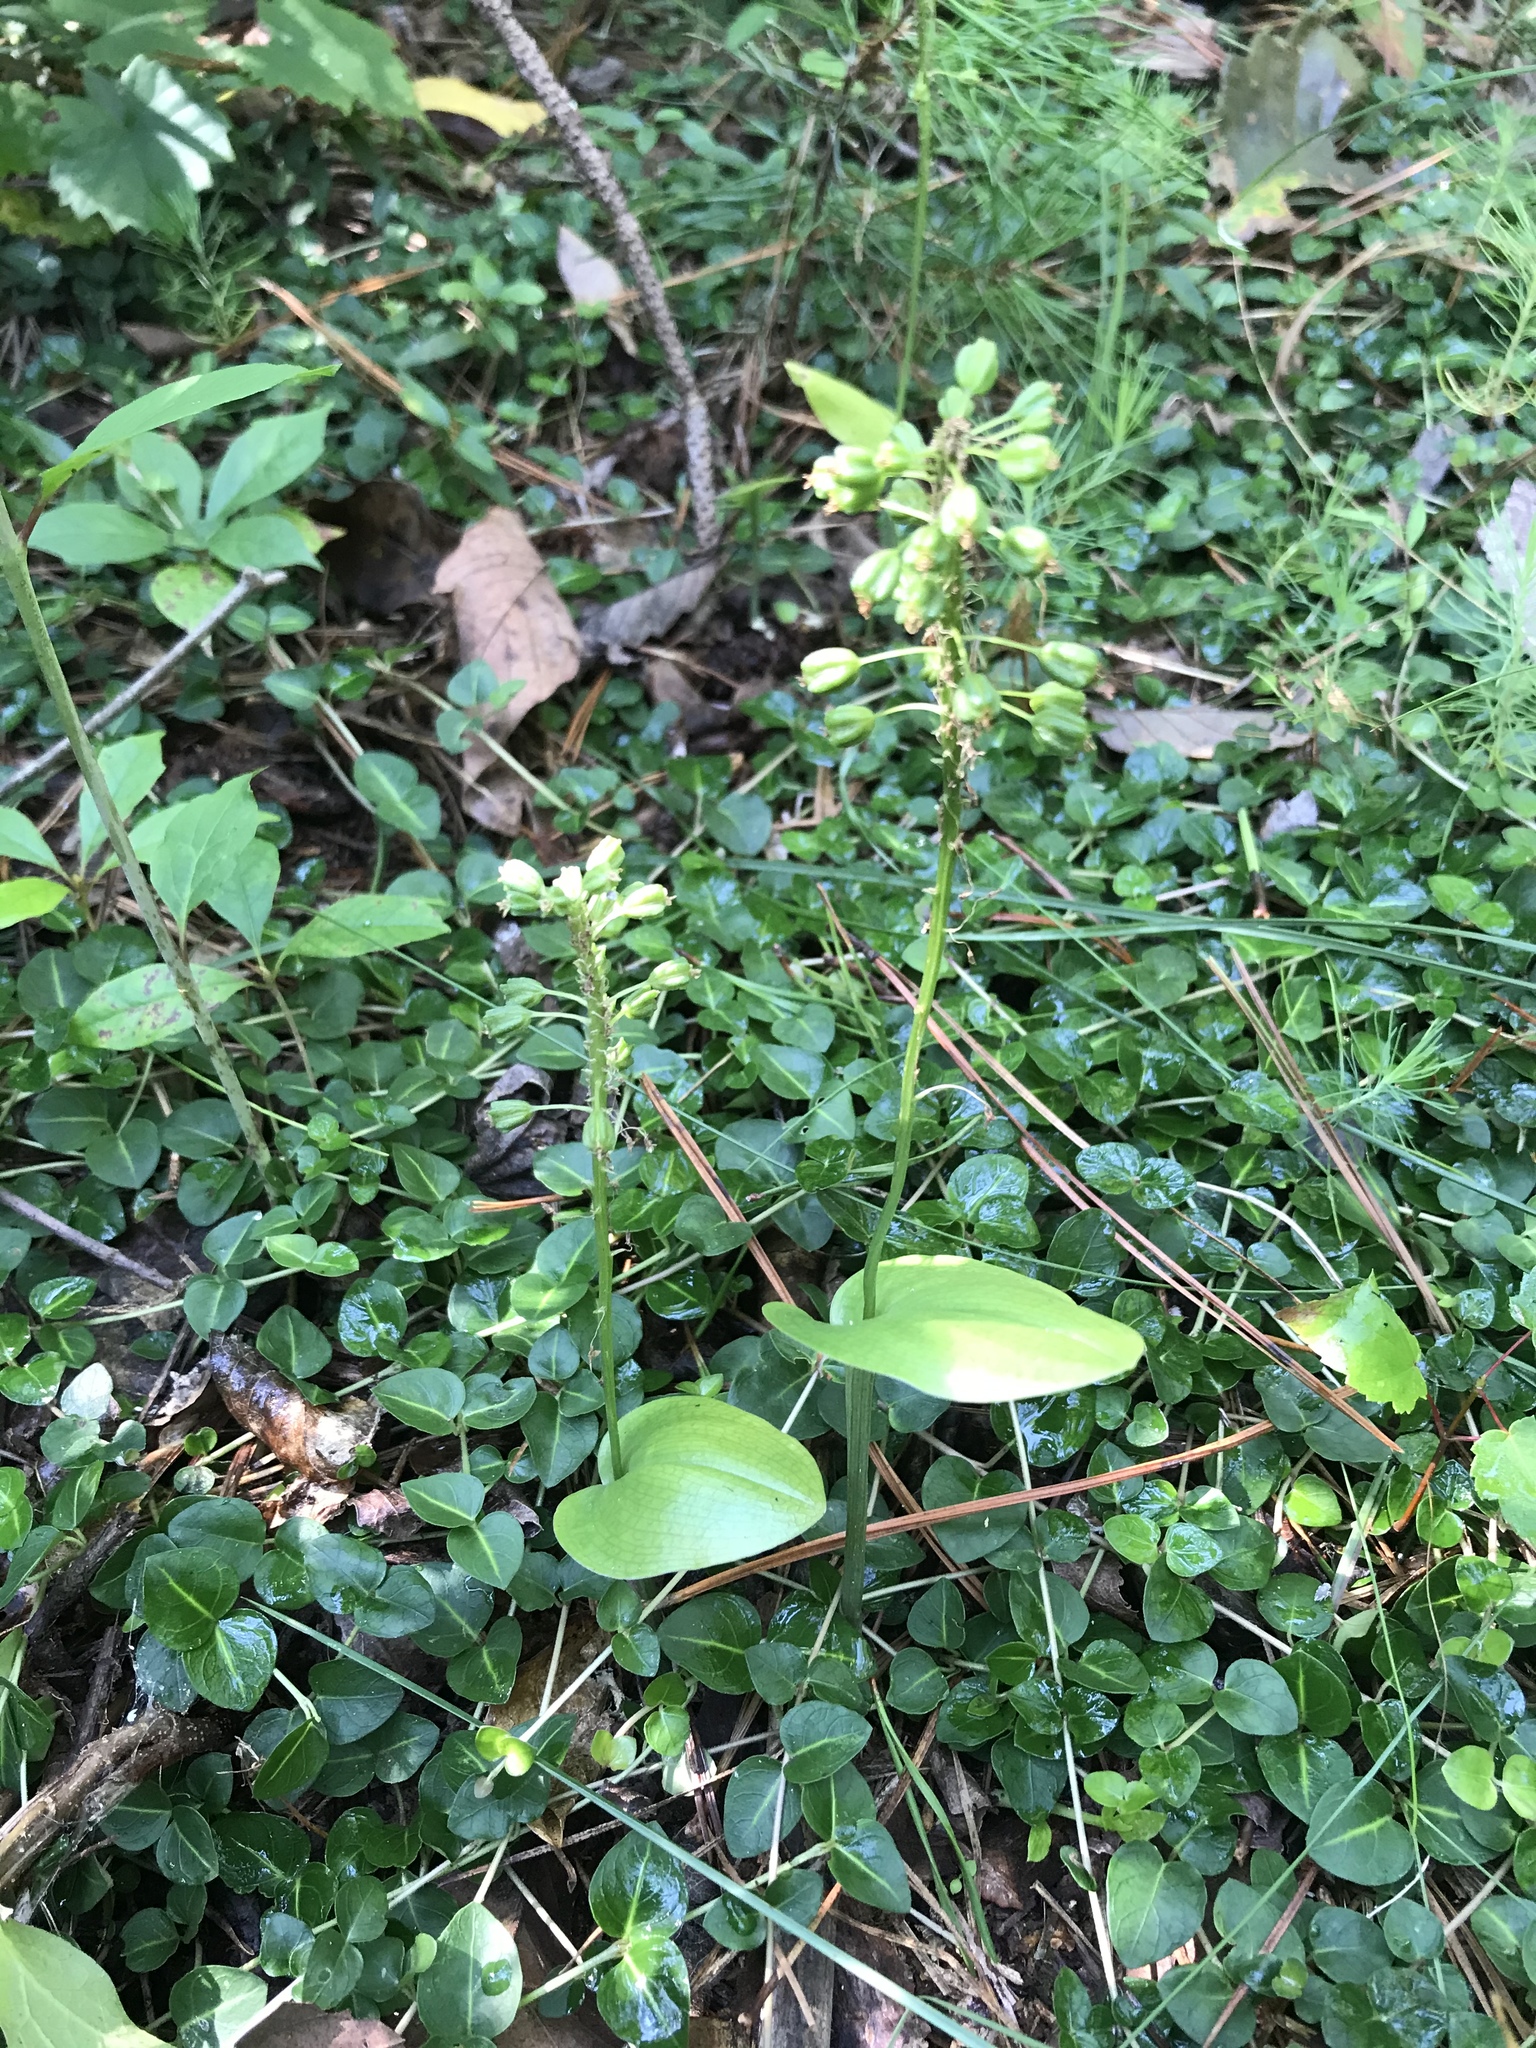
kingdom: Plantae
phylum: Tracheophyta
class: Liliopsida
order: Asparagales
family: Orchidaceae
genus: Malaxis
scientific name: Malaxis unifolia
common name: Green adder's-mouth
